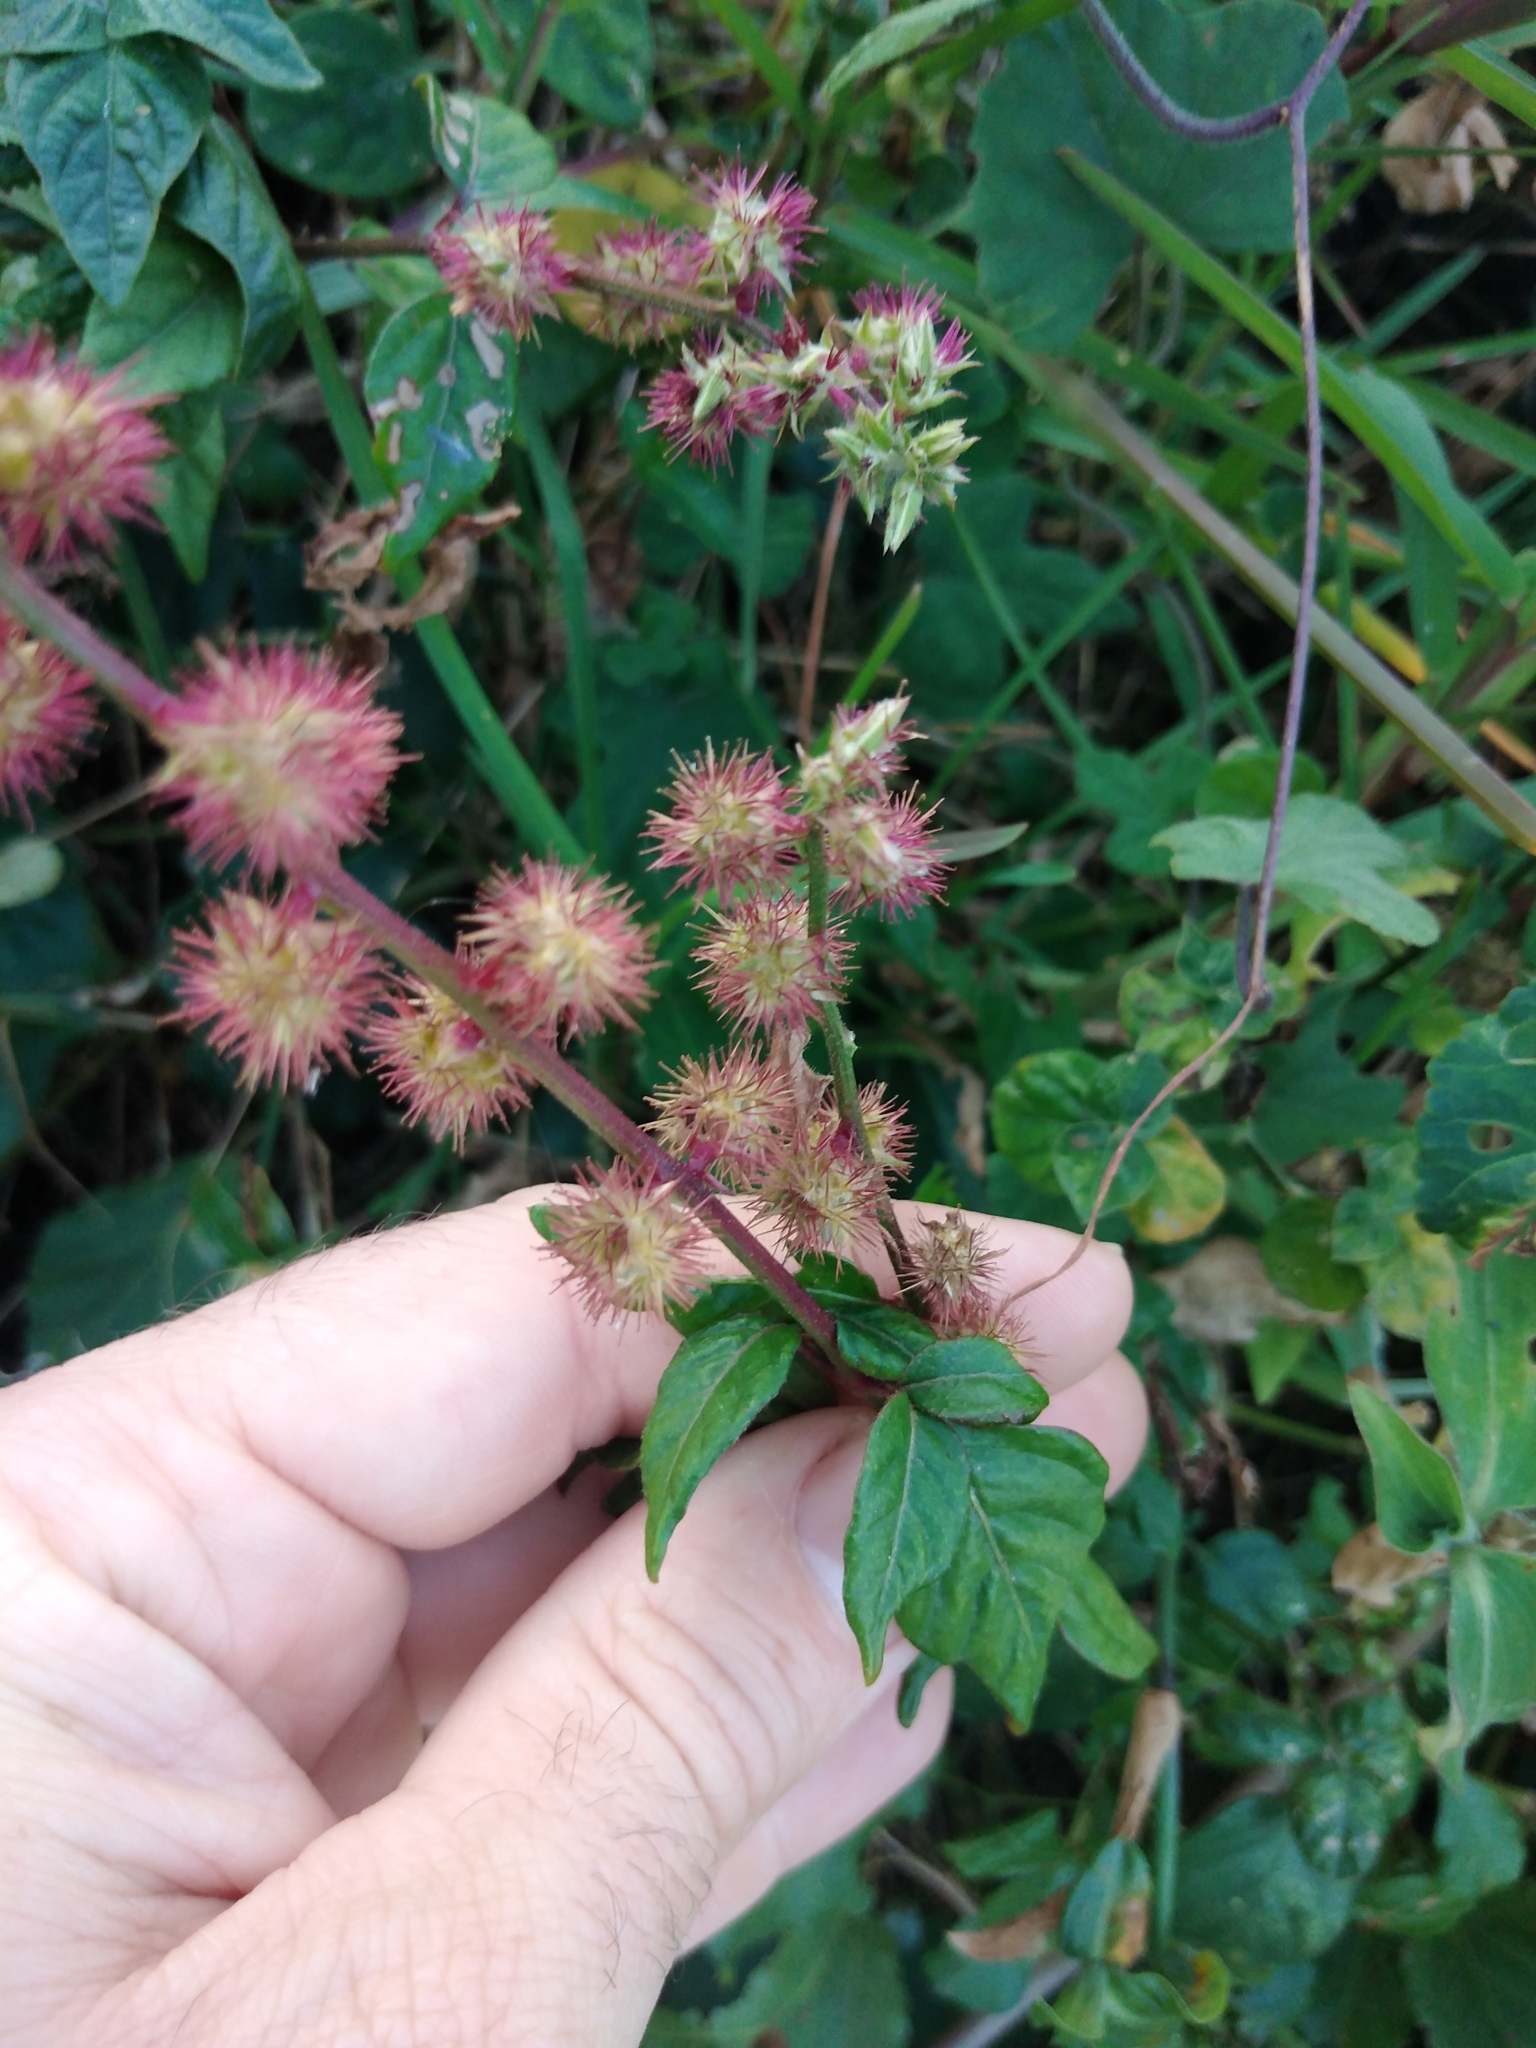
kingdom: Plantae
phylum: Tracheophyta
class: Magnoliopsida
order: Caryophyllales
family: Amaranthaceae
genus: Pupalia
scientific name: Pupalia lappacea
